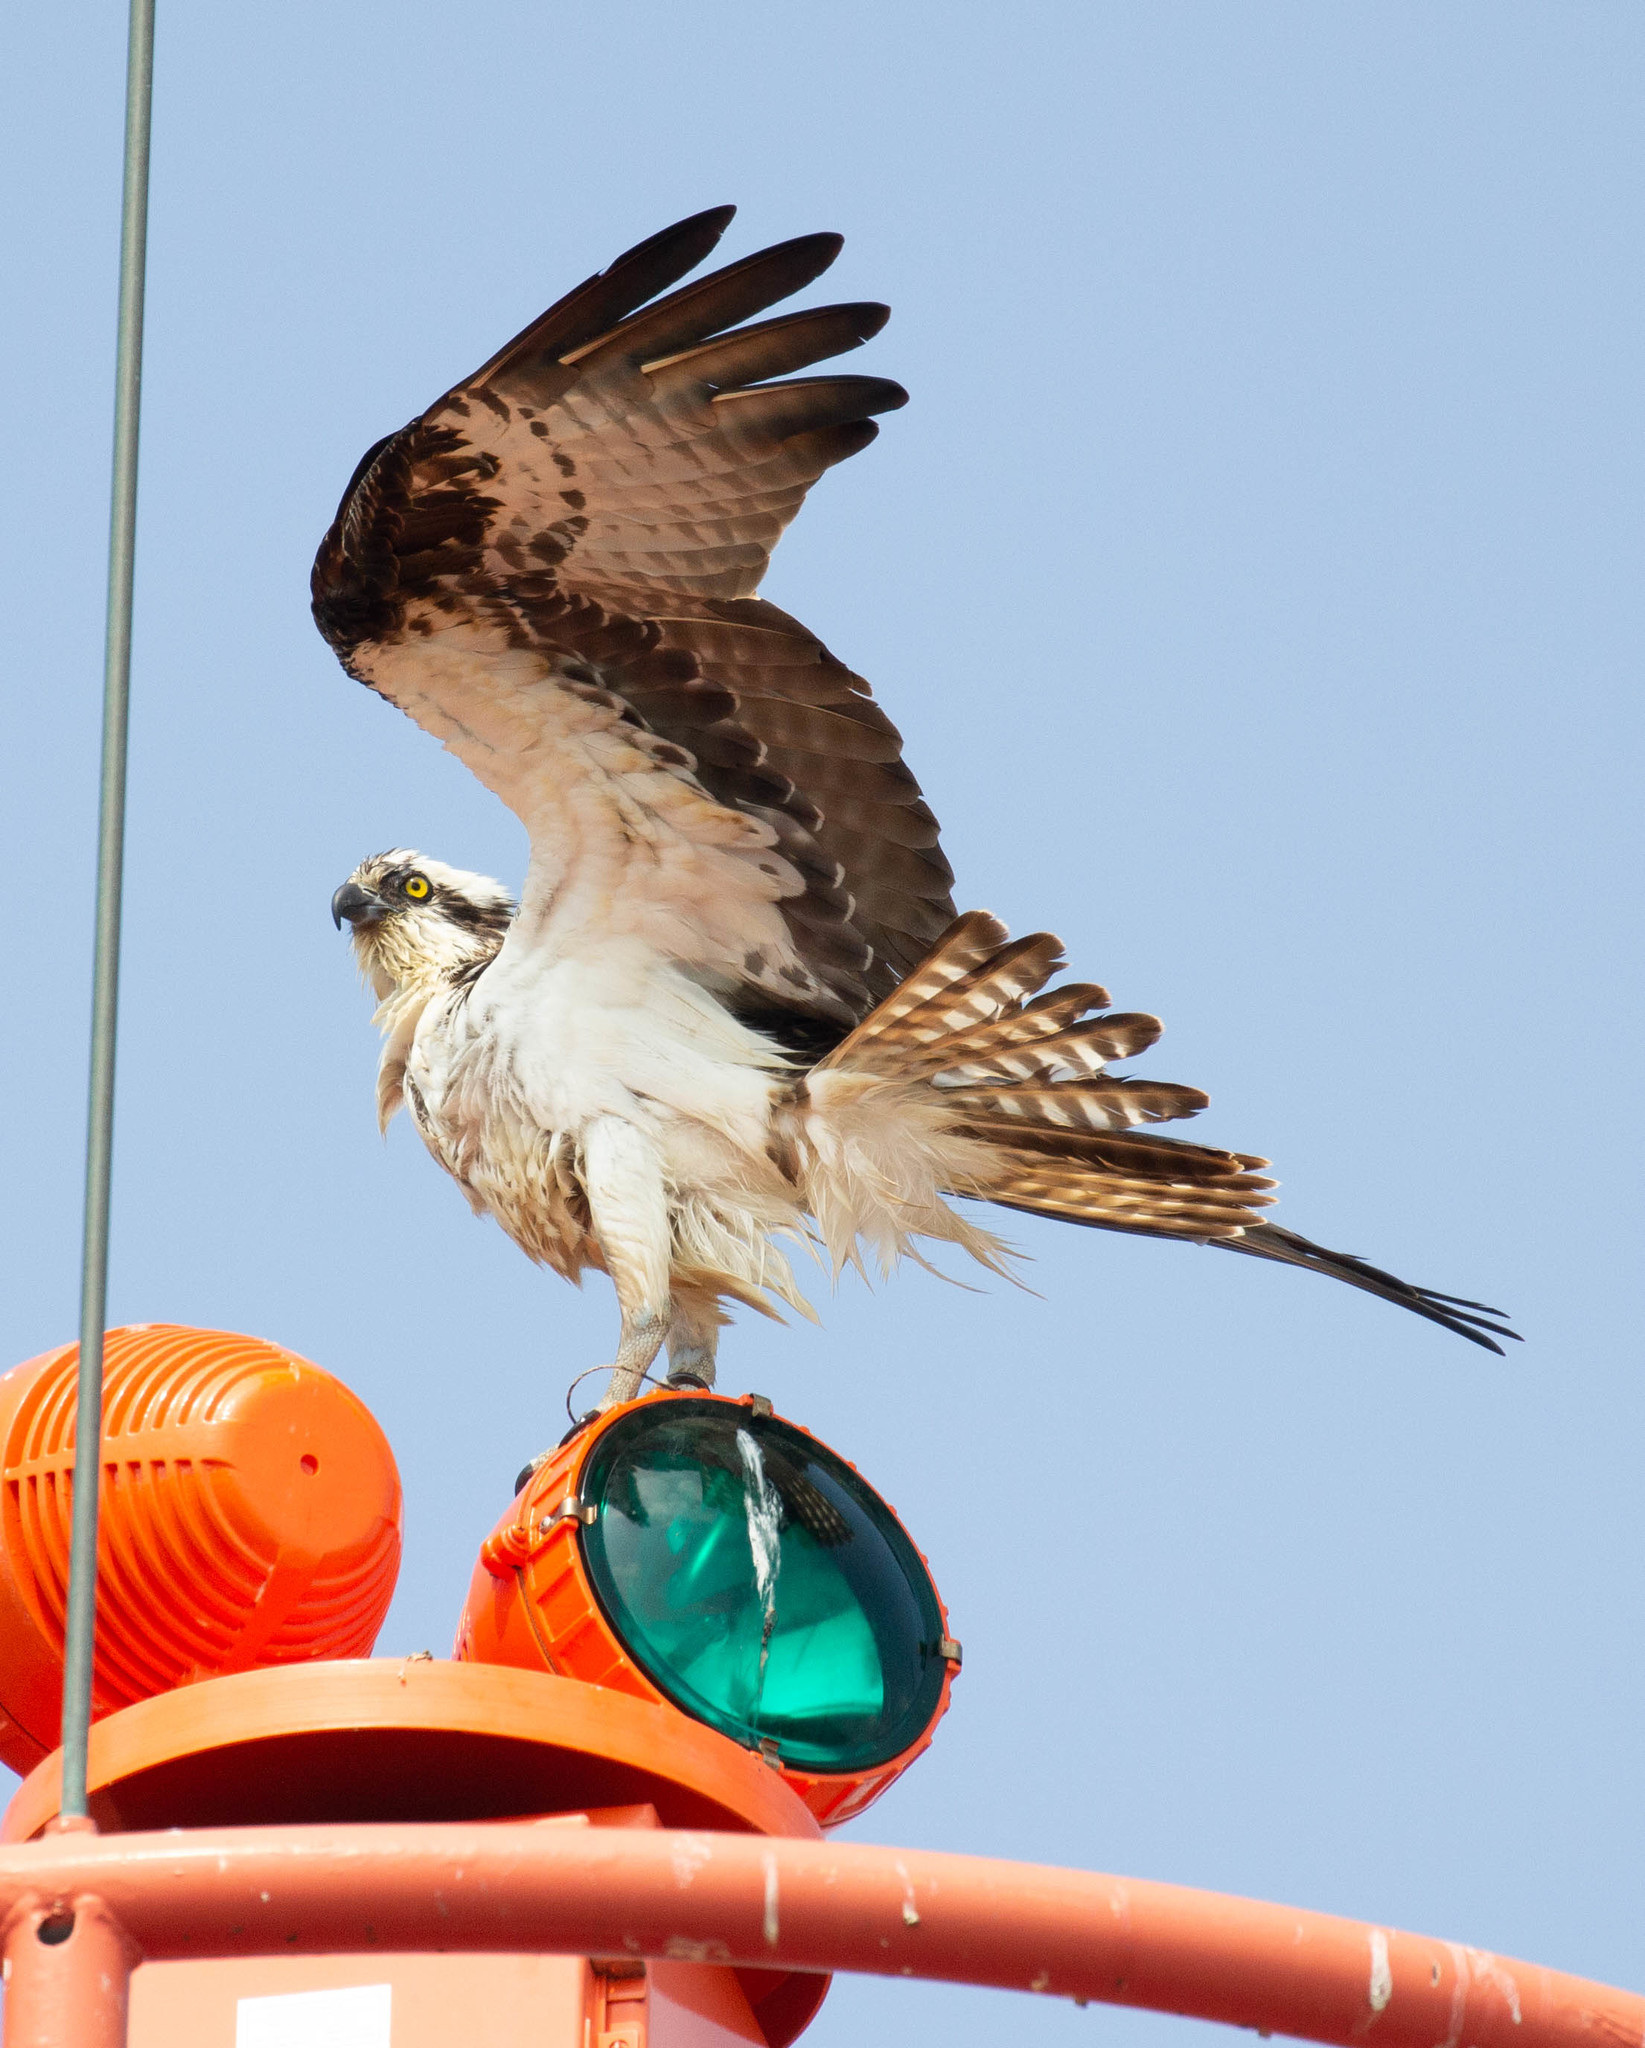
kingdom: Animalia
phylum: Chordata
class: Aves
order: Accipitriformes
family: Pandionidae
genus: Pandion
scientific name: Pandion haliaetus
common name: Osprey
